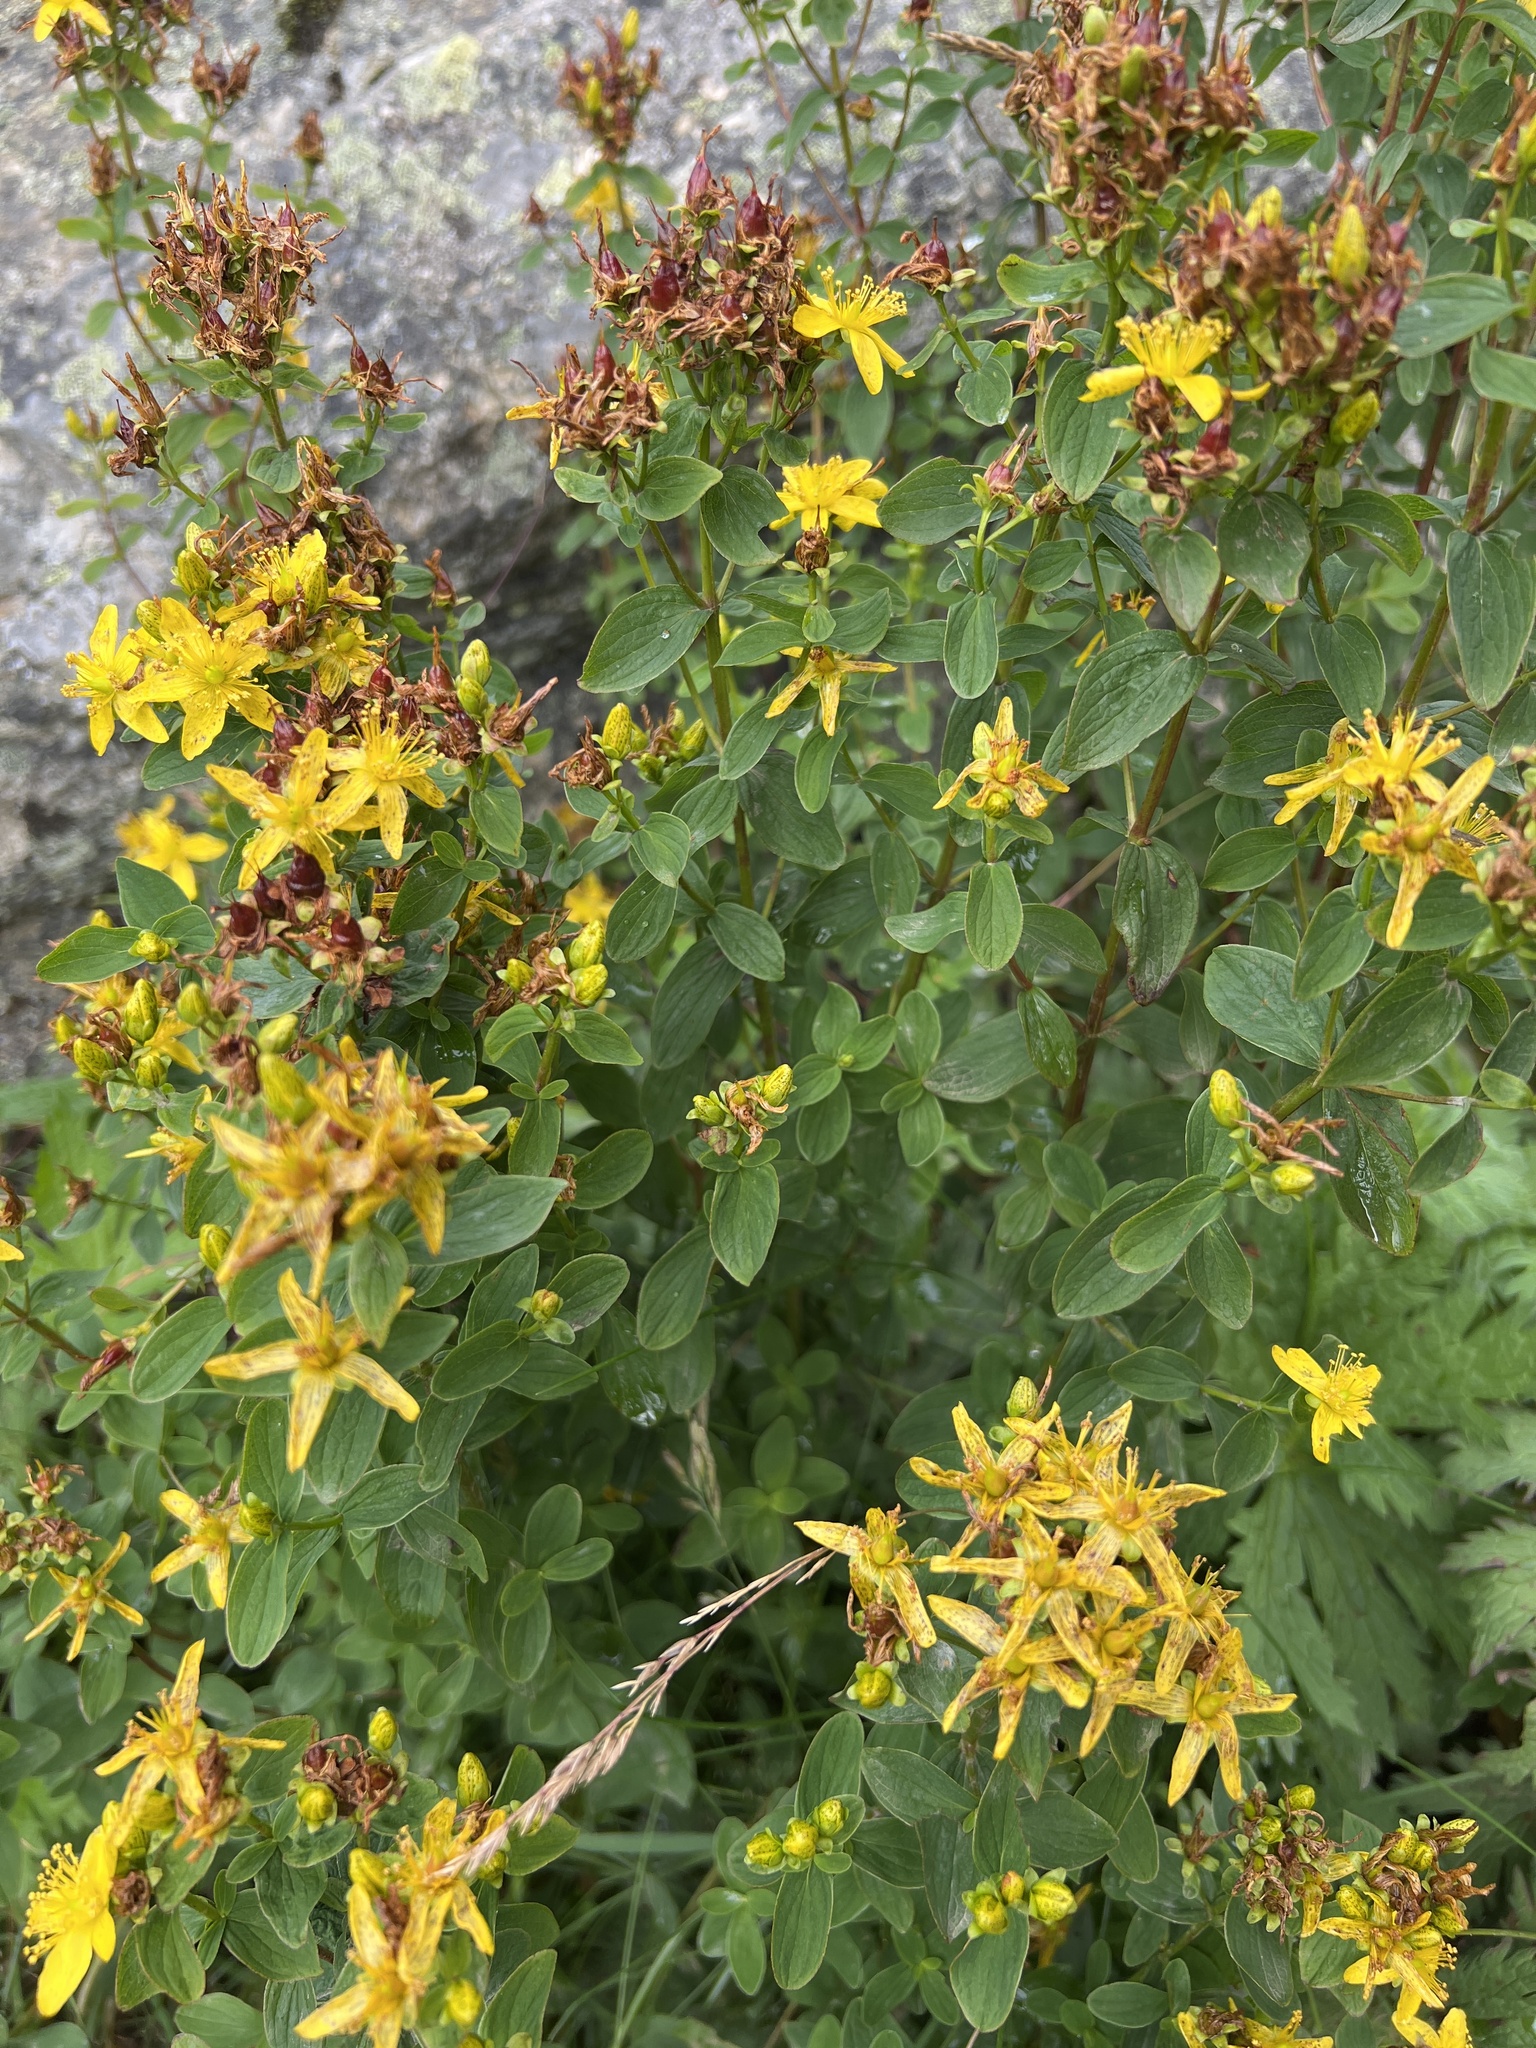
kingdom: Plantae
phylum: Tracheophyta
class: Magnoliopsida
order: Malpighiales
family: Hypericaceae
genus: Hypericum
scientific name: Hypericum maculatum
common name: Imperforate st. john's-wort
